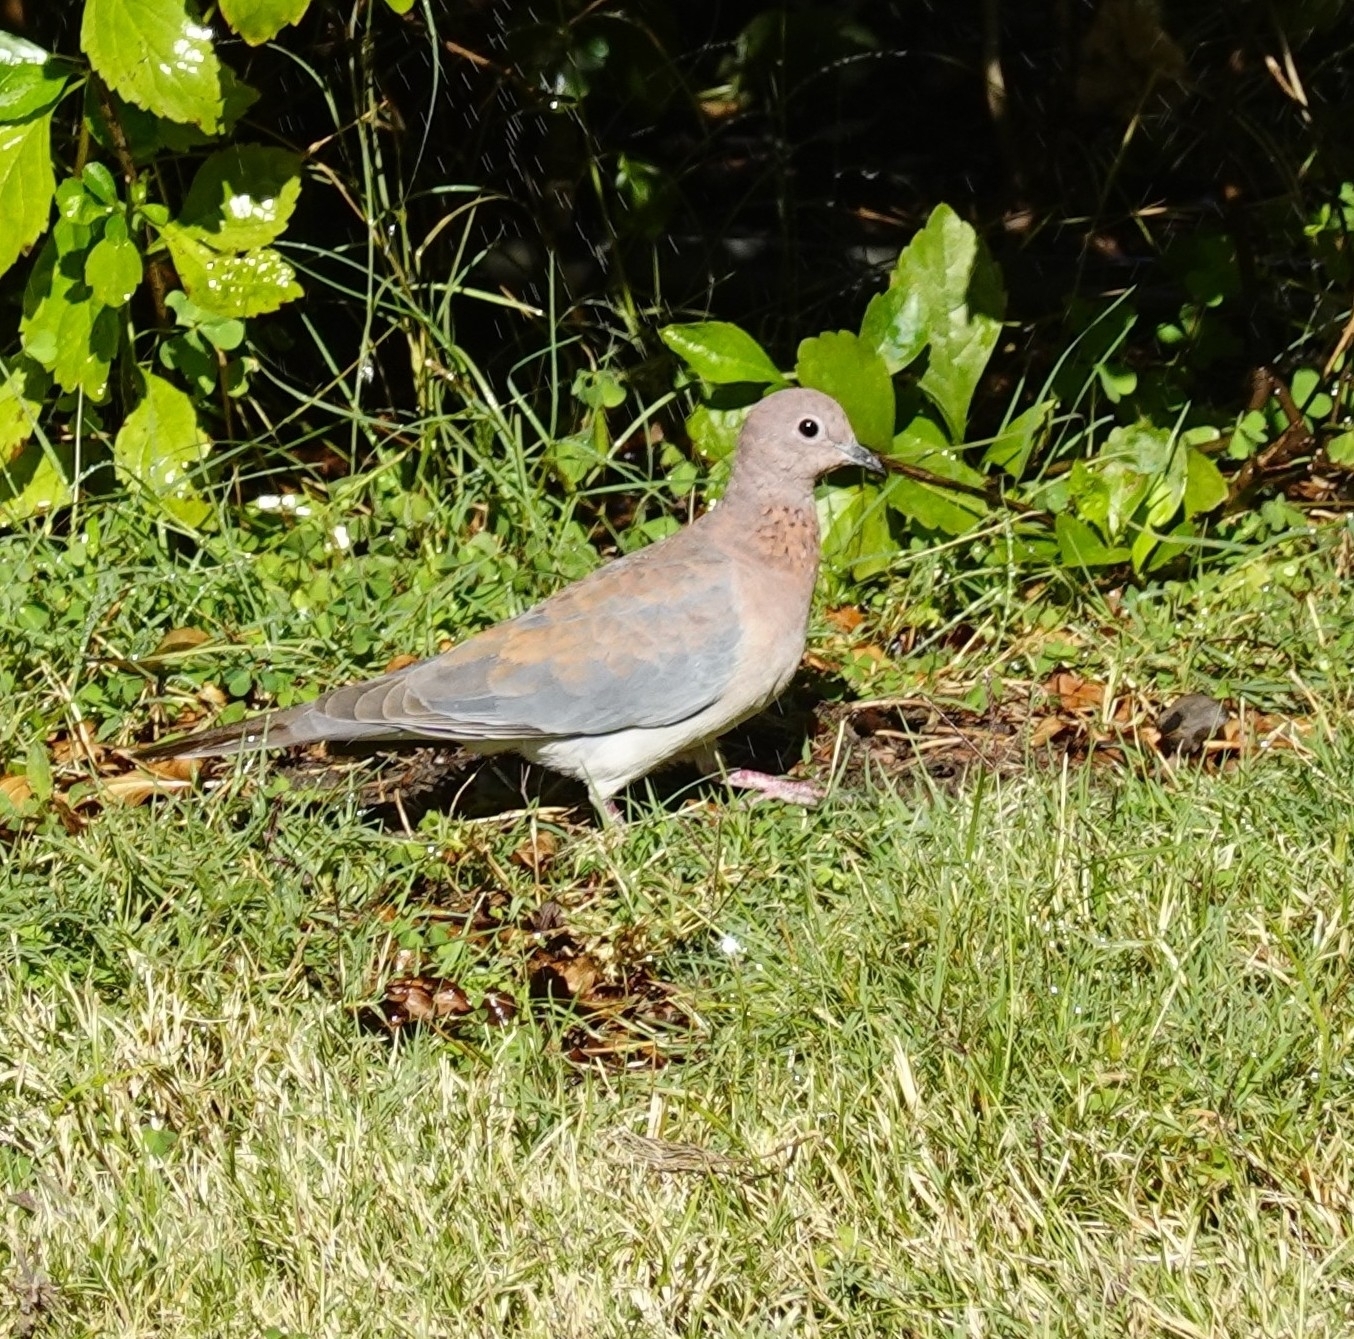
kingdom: Animalia
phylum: Chordata
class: Aves
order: Columbiformes
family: Columbidae
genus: Spilopelia
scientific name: Spilopelia senegalensis
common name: Laughing dove
